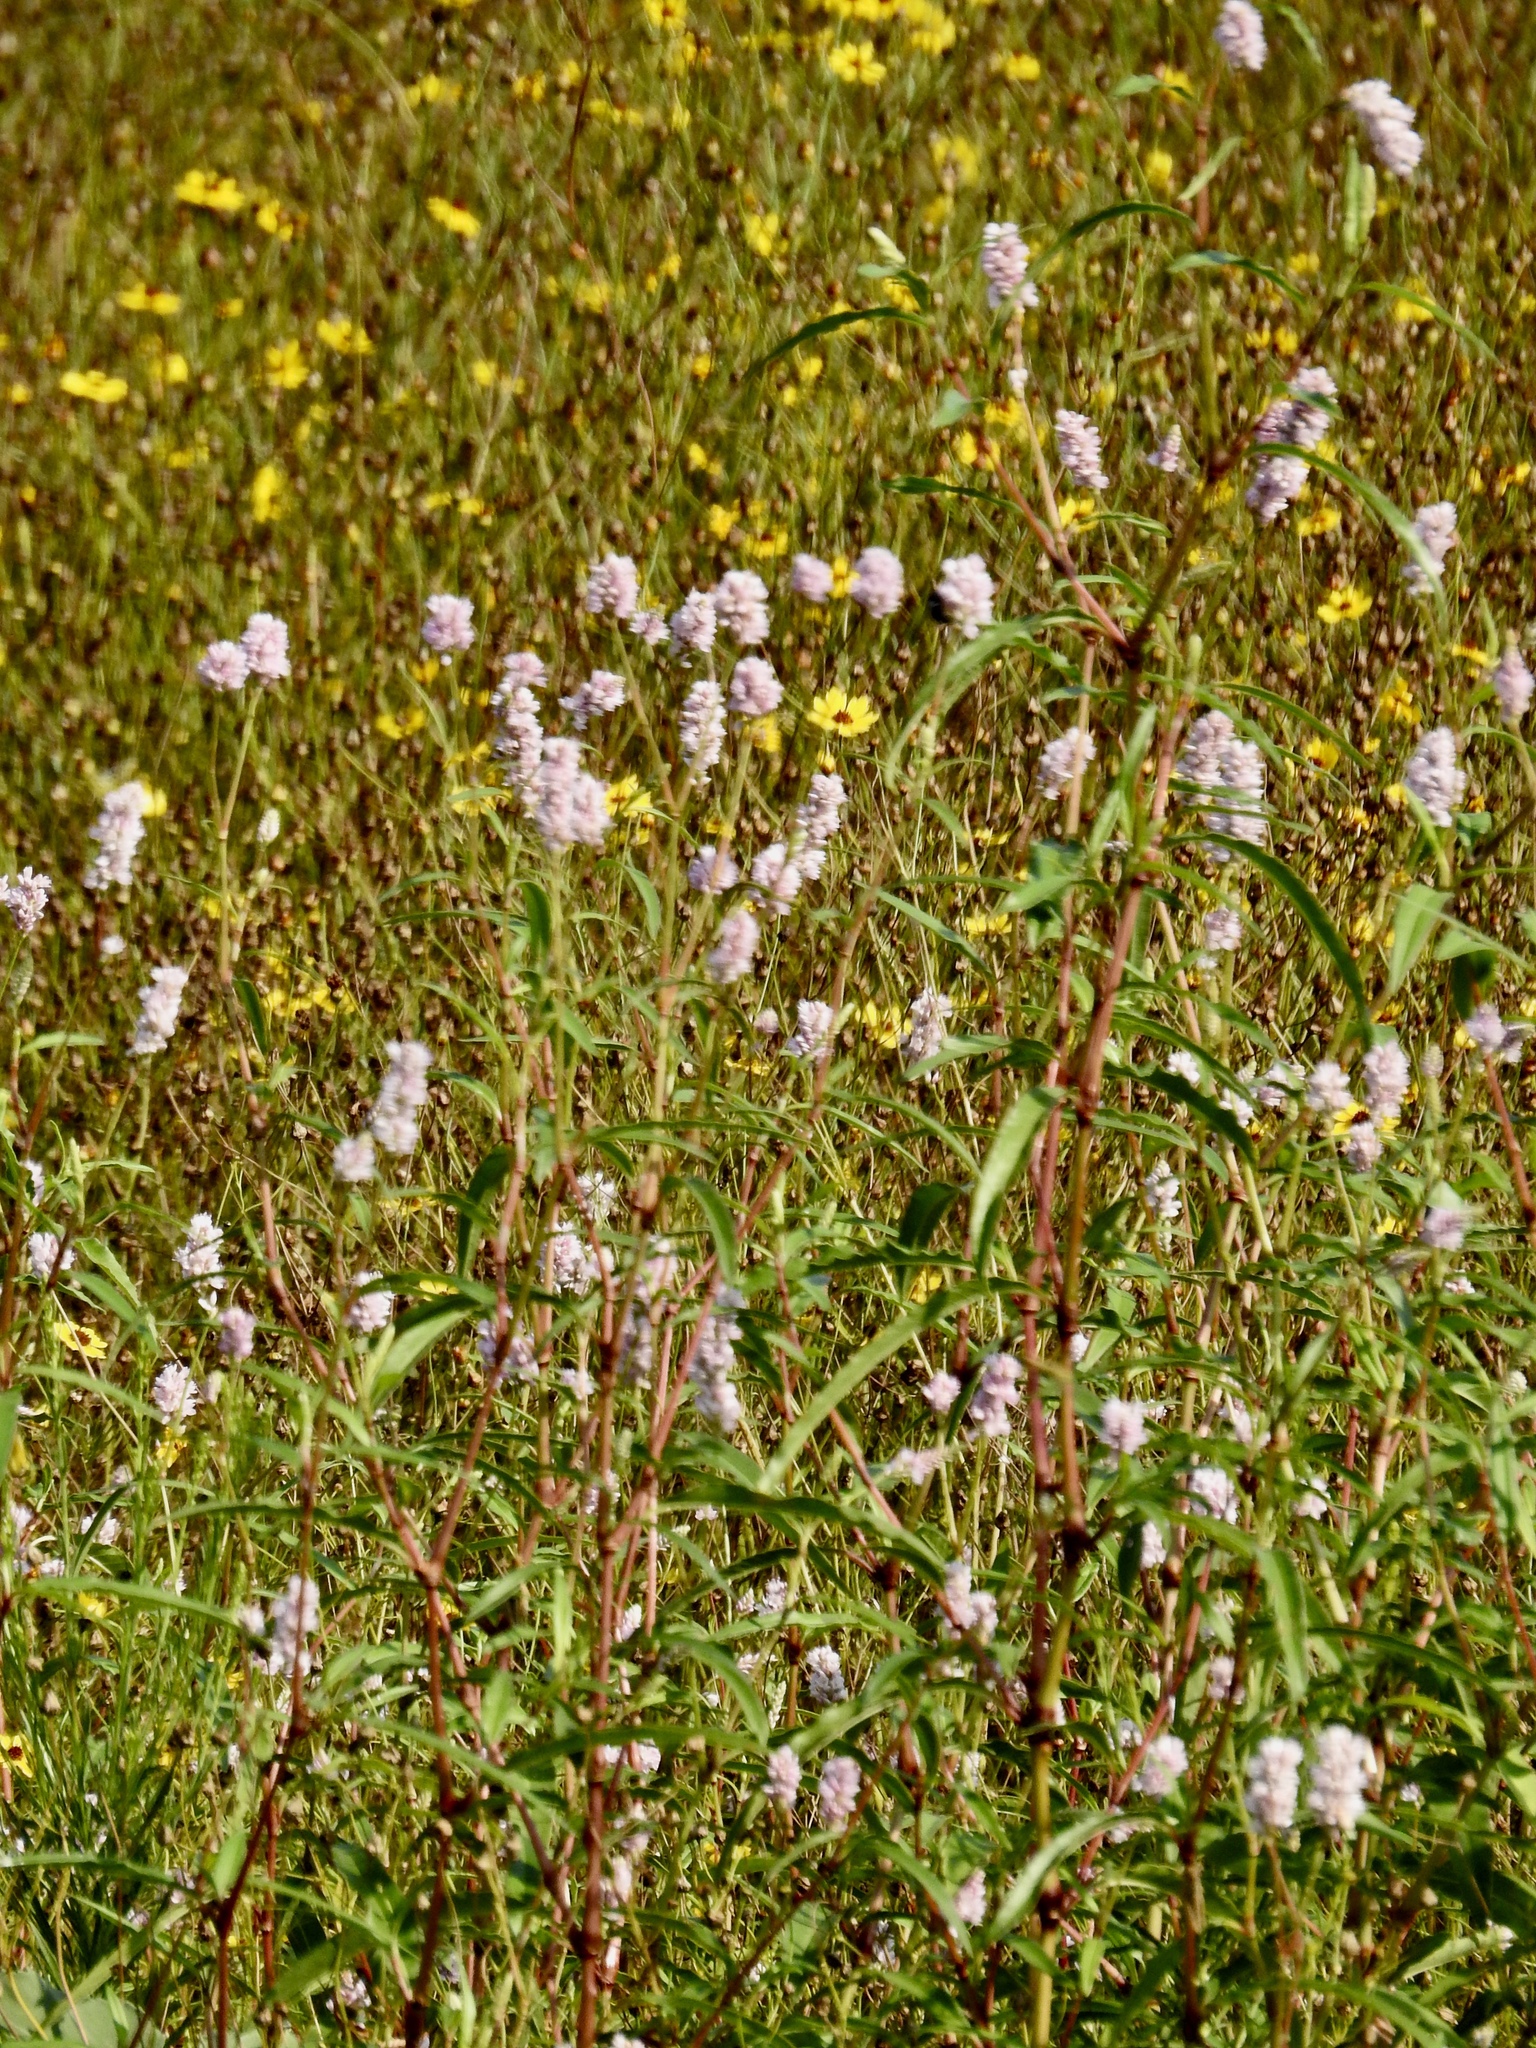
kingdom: Plantae
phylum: Tracheophyta
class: Magnoliopsida
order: Caryophyllales
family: Polygonaceae
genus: Persicaria
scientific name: Persicaria pensylvanica
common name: Pinkweed
